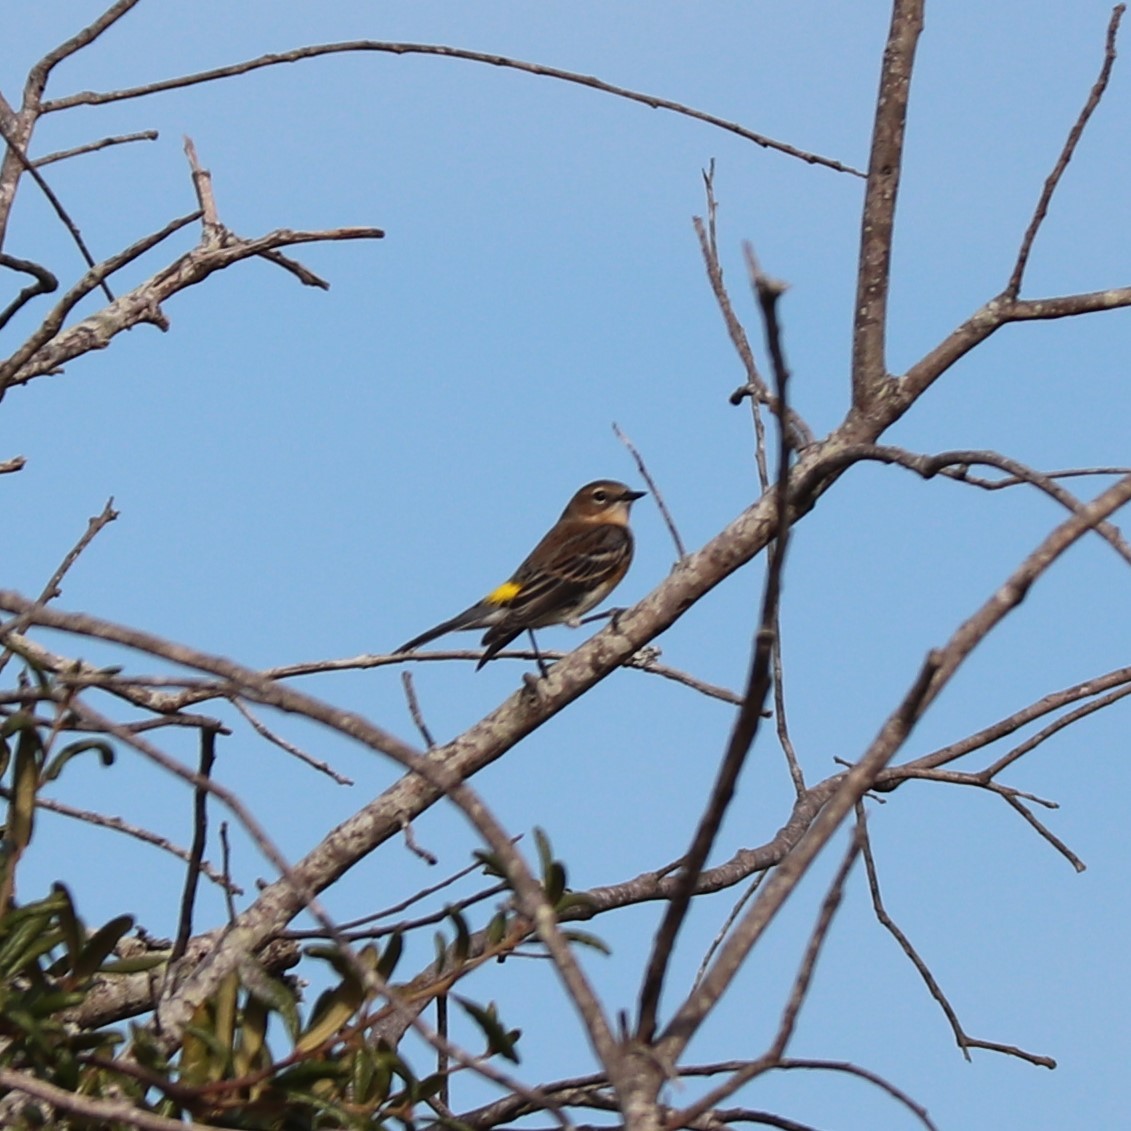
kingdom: Animalia
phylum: Chordata
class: Aves
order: Passeriformes
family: Parulidae
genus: Setophaga
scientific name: Setophaga coronata
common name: Myrtle warbler
